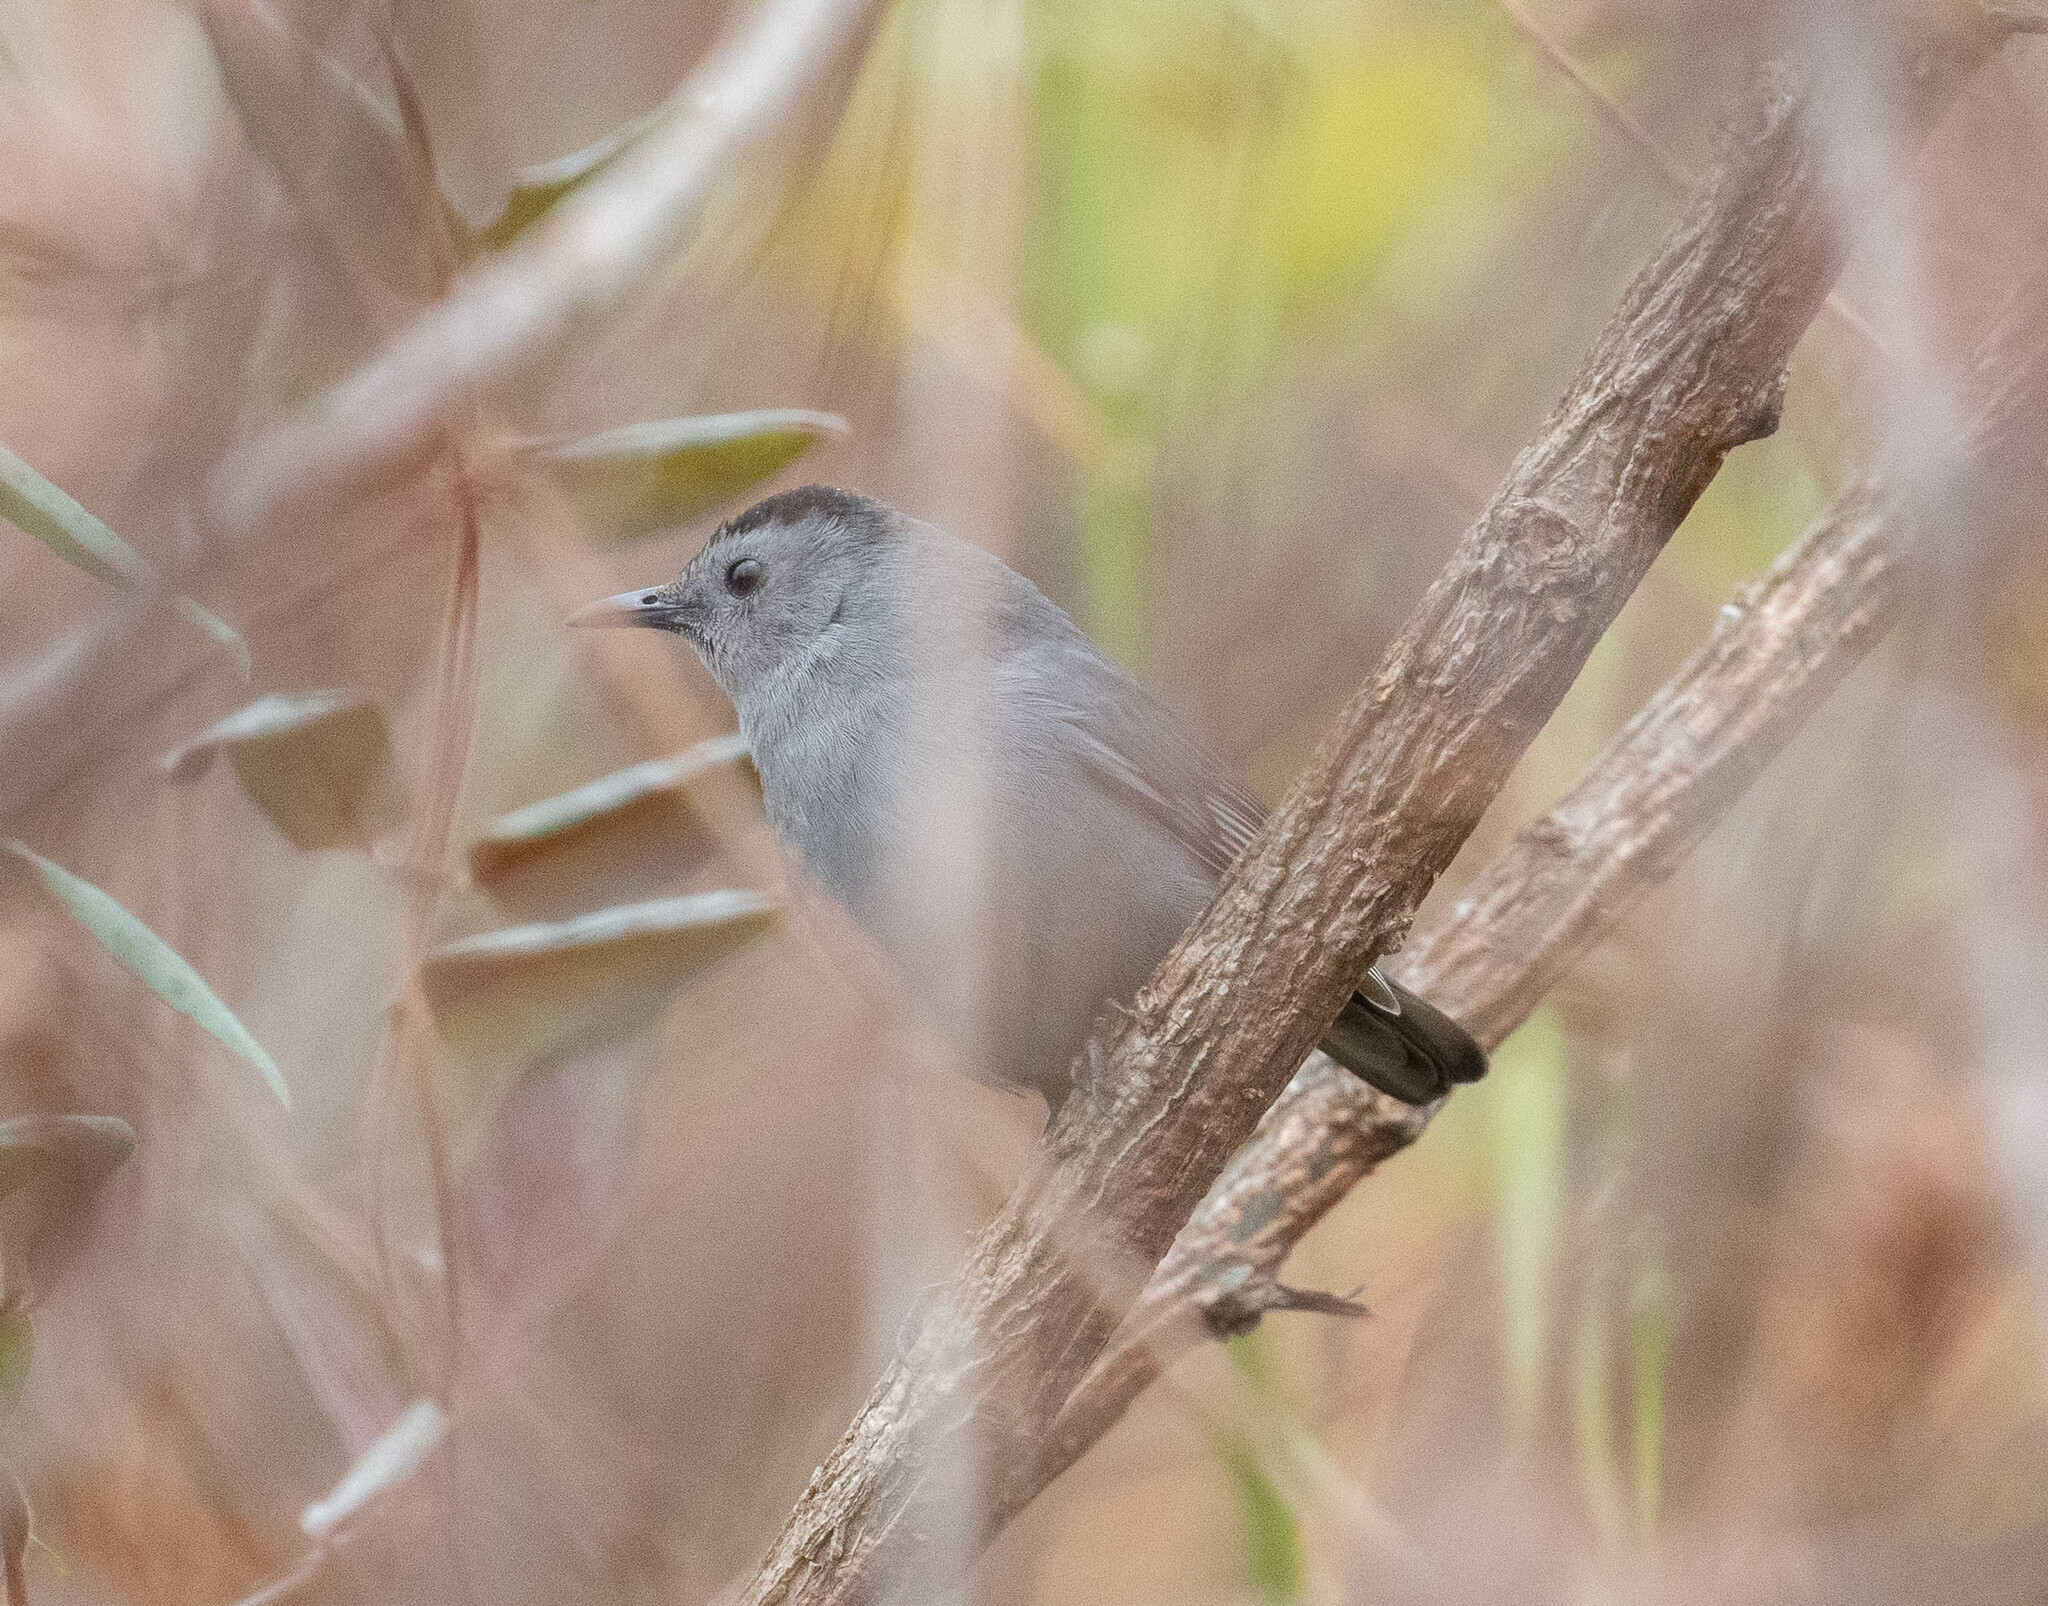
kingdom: Animalia
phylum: Chordata
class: Aves
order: Passeriformes
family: Mimidae
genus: Dumetella
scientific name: Dumetella carolinensis
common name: Gray catbird
